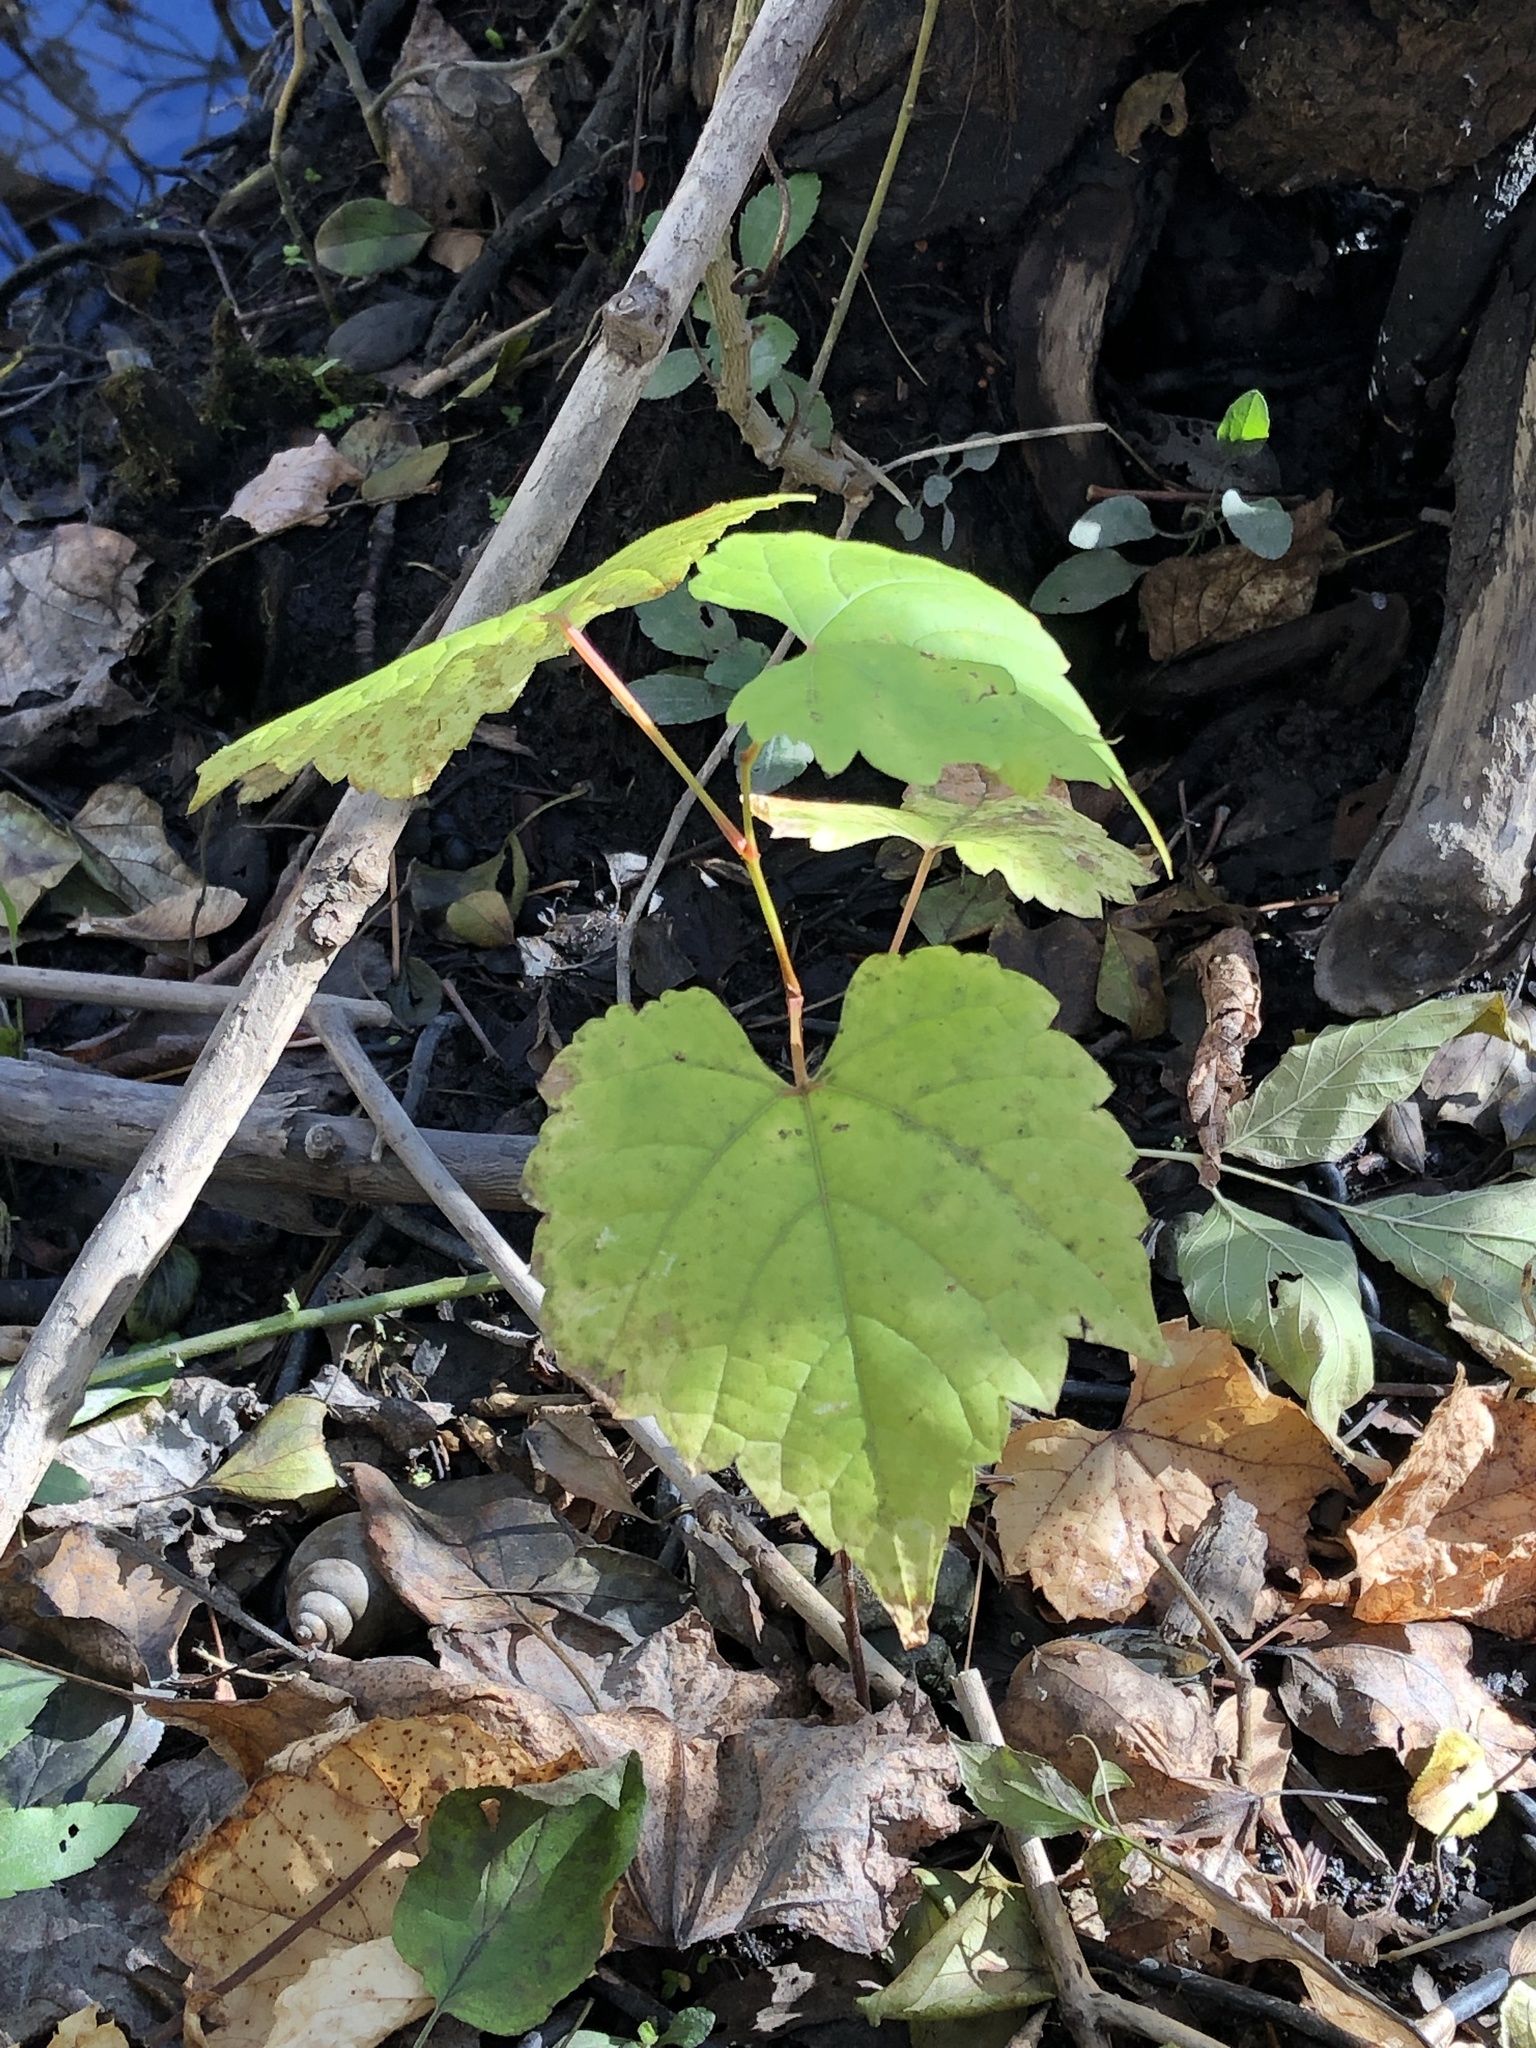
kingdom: Plantae
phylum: Tracheophyta
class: Magnoliopsida
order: Vitales
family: Vitaceae
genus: Vitis
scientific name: Vitis riparia
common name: Frost grape
